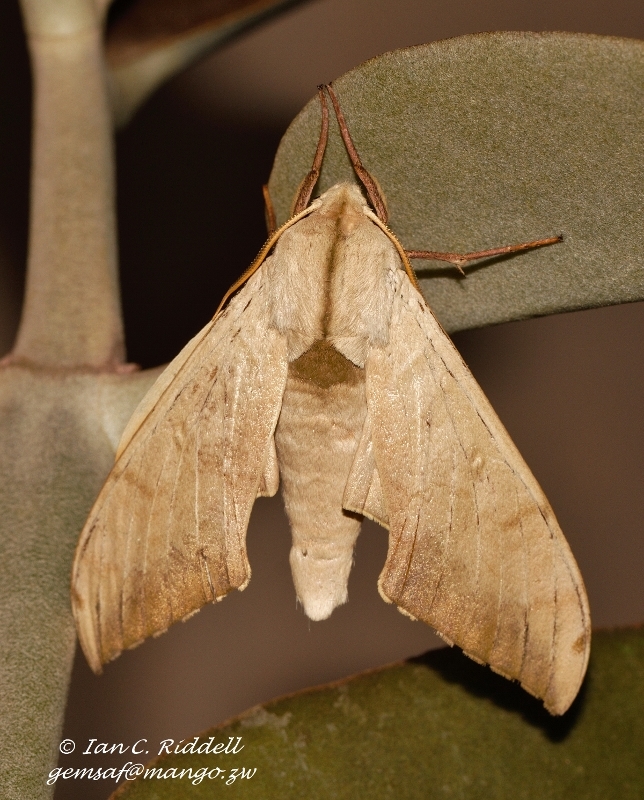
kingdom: Animalia
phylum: Arthropoda
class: Insecta
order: Lepidoptera
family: Sphingidae
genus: Pseudoclanis
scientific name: Pseudoclanis postica
